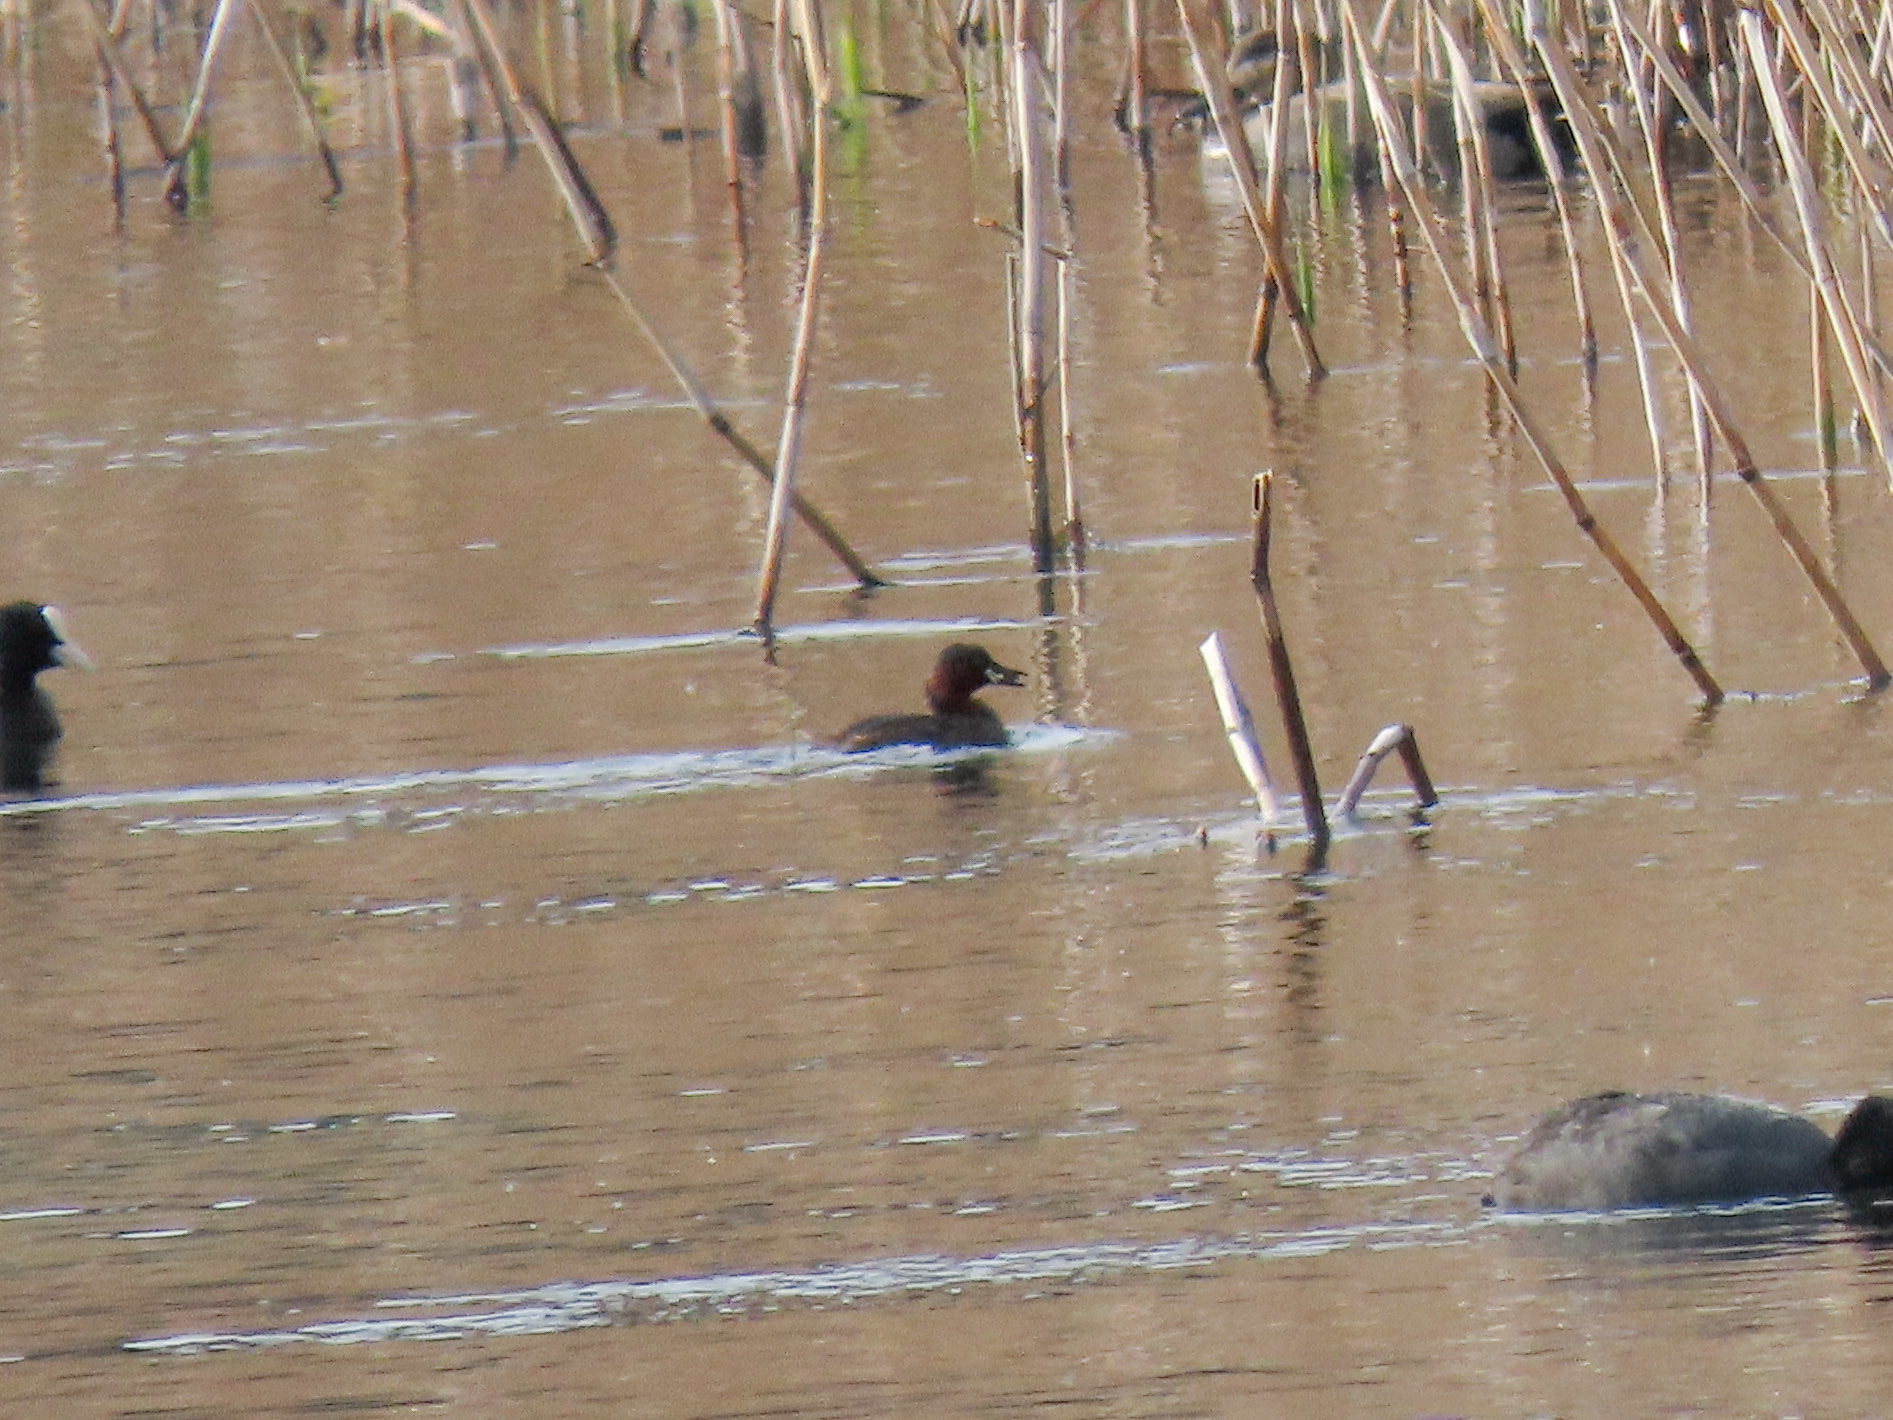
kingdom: Animalia
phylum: Chordata
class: Aves
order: Podicipediformes
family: Podicipedidae
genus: Tachybaptus
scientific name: Tachybaptus ruficollis
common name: Little grebe
